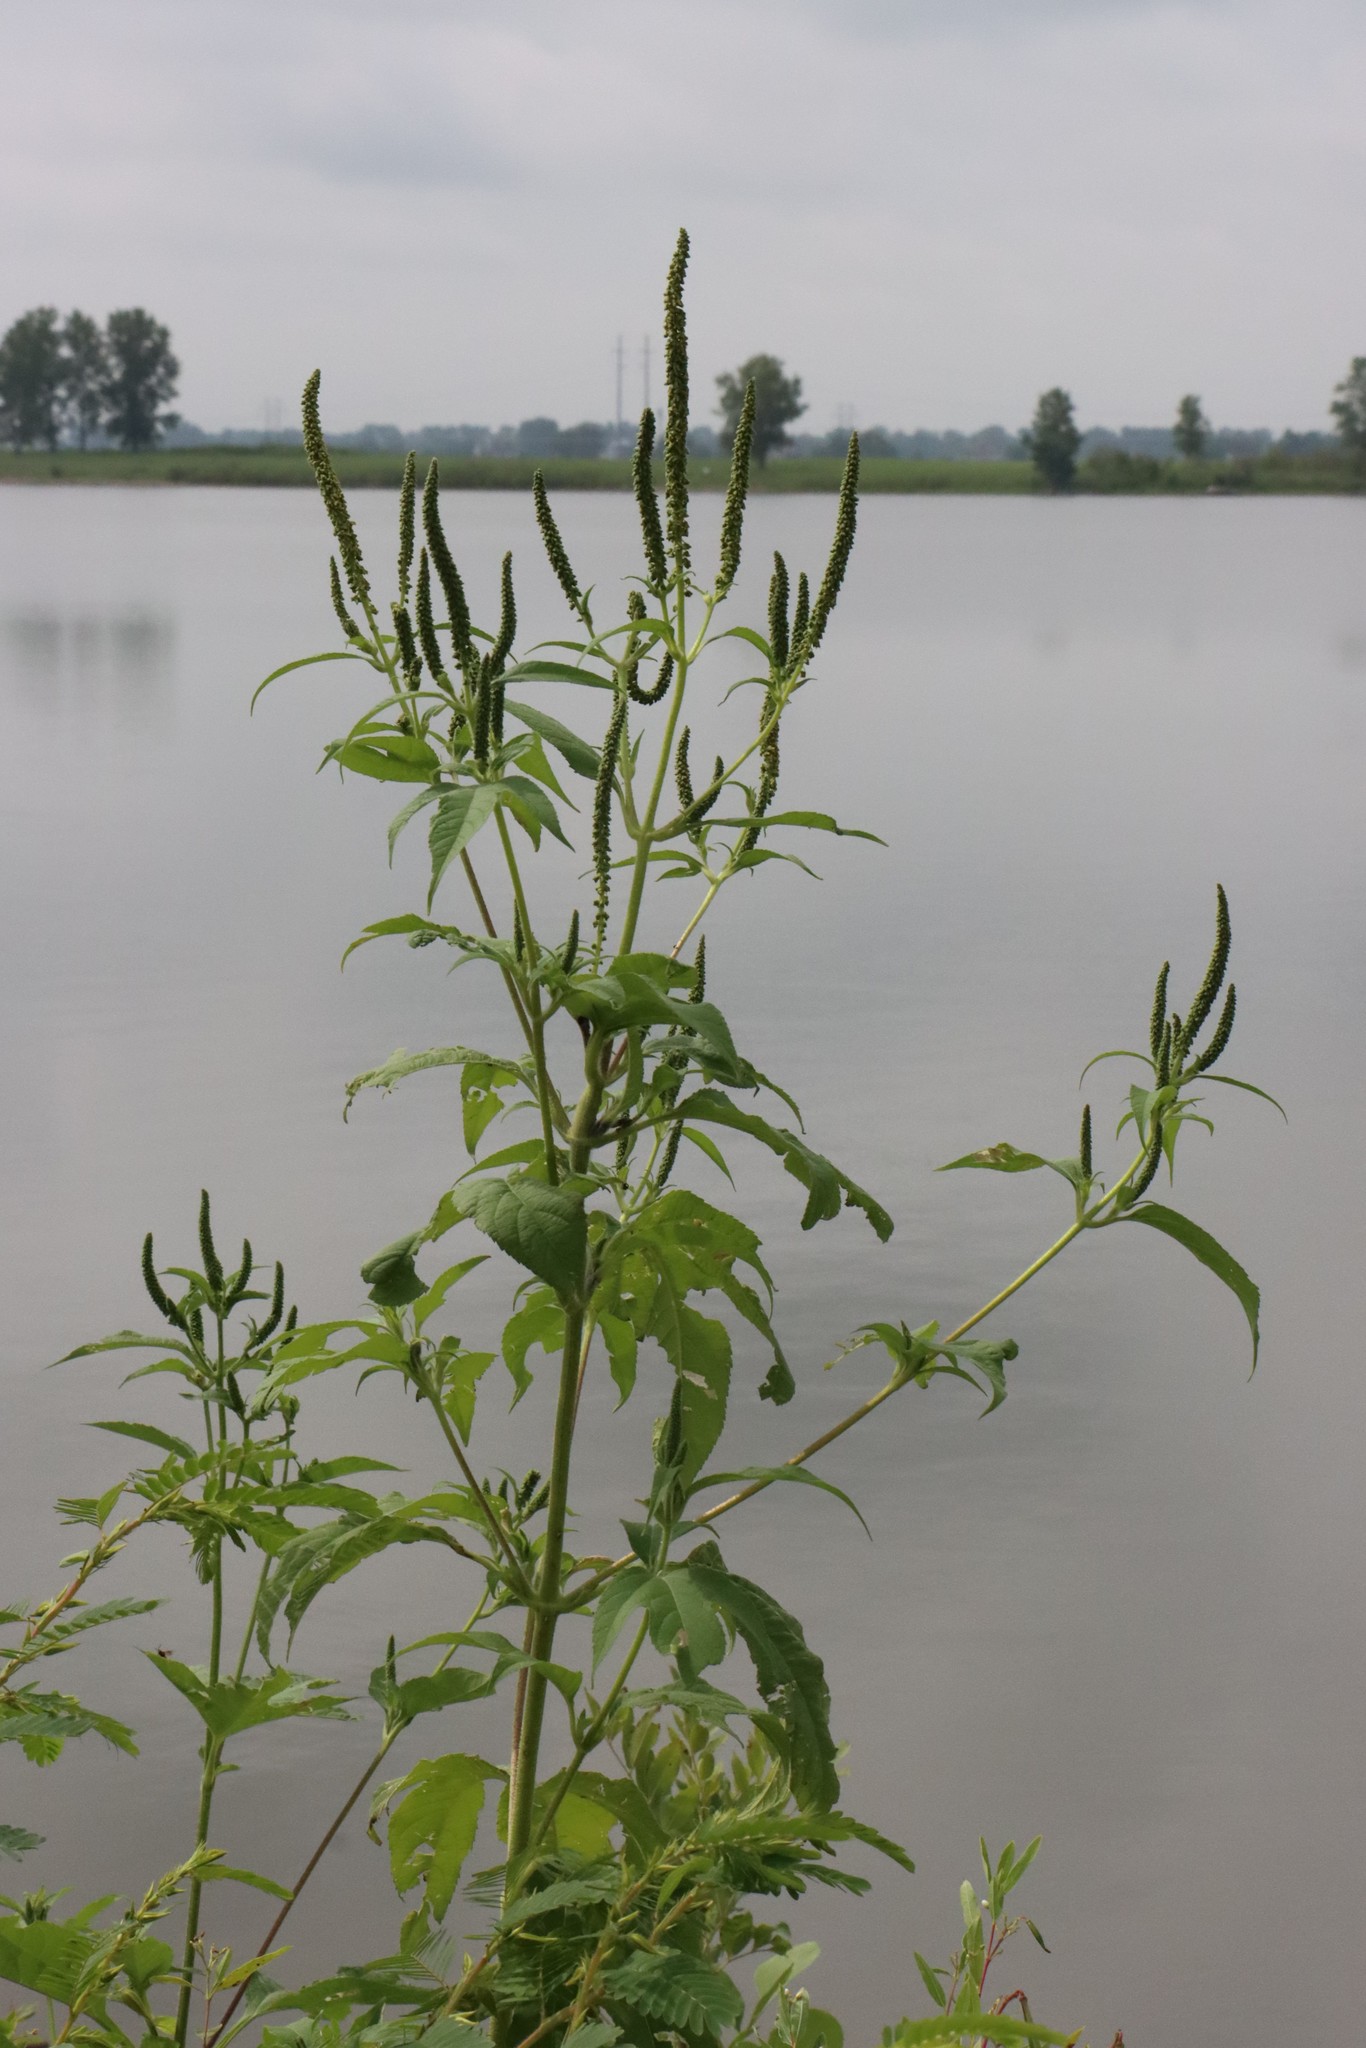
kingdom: Plantae
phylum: Tracheophyta
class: Magnoliopsida
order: Asterales
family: Asteraceae
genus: Ambrosia
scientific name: Ambrosia trifida
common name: Giant ragweed
